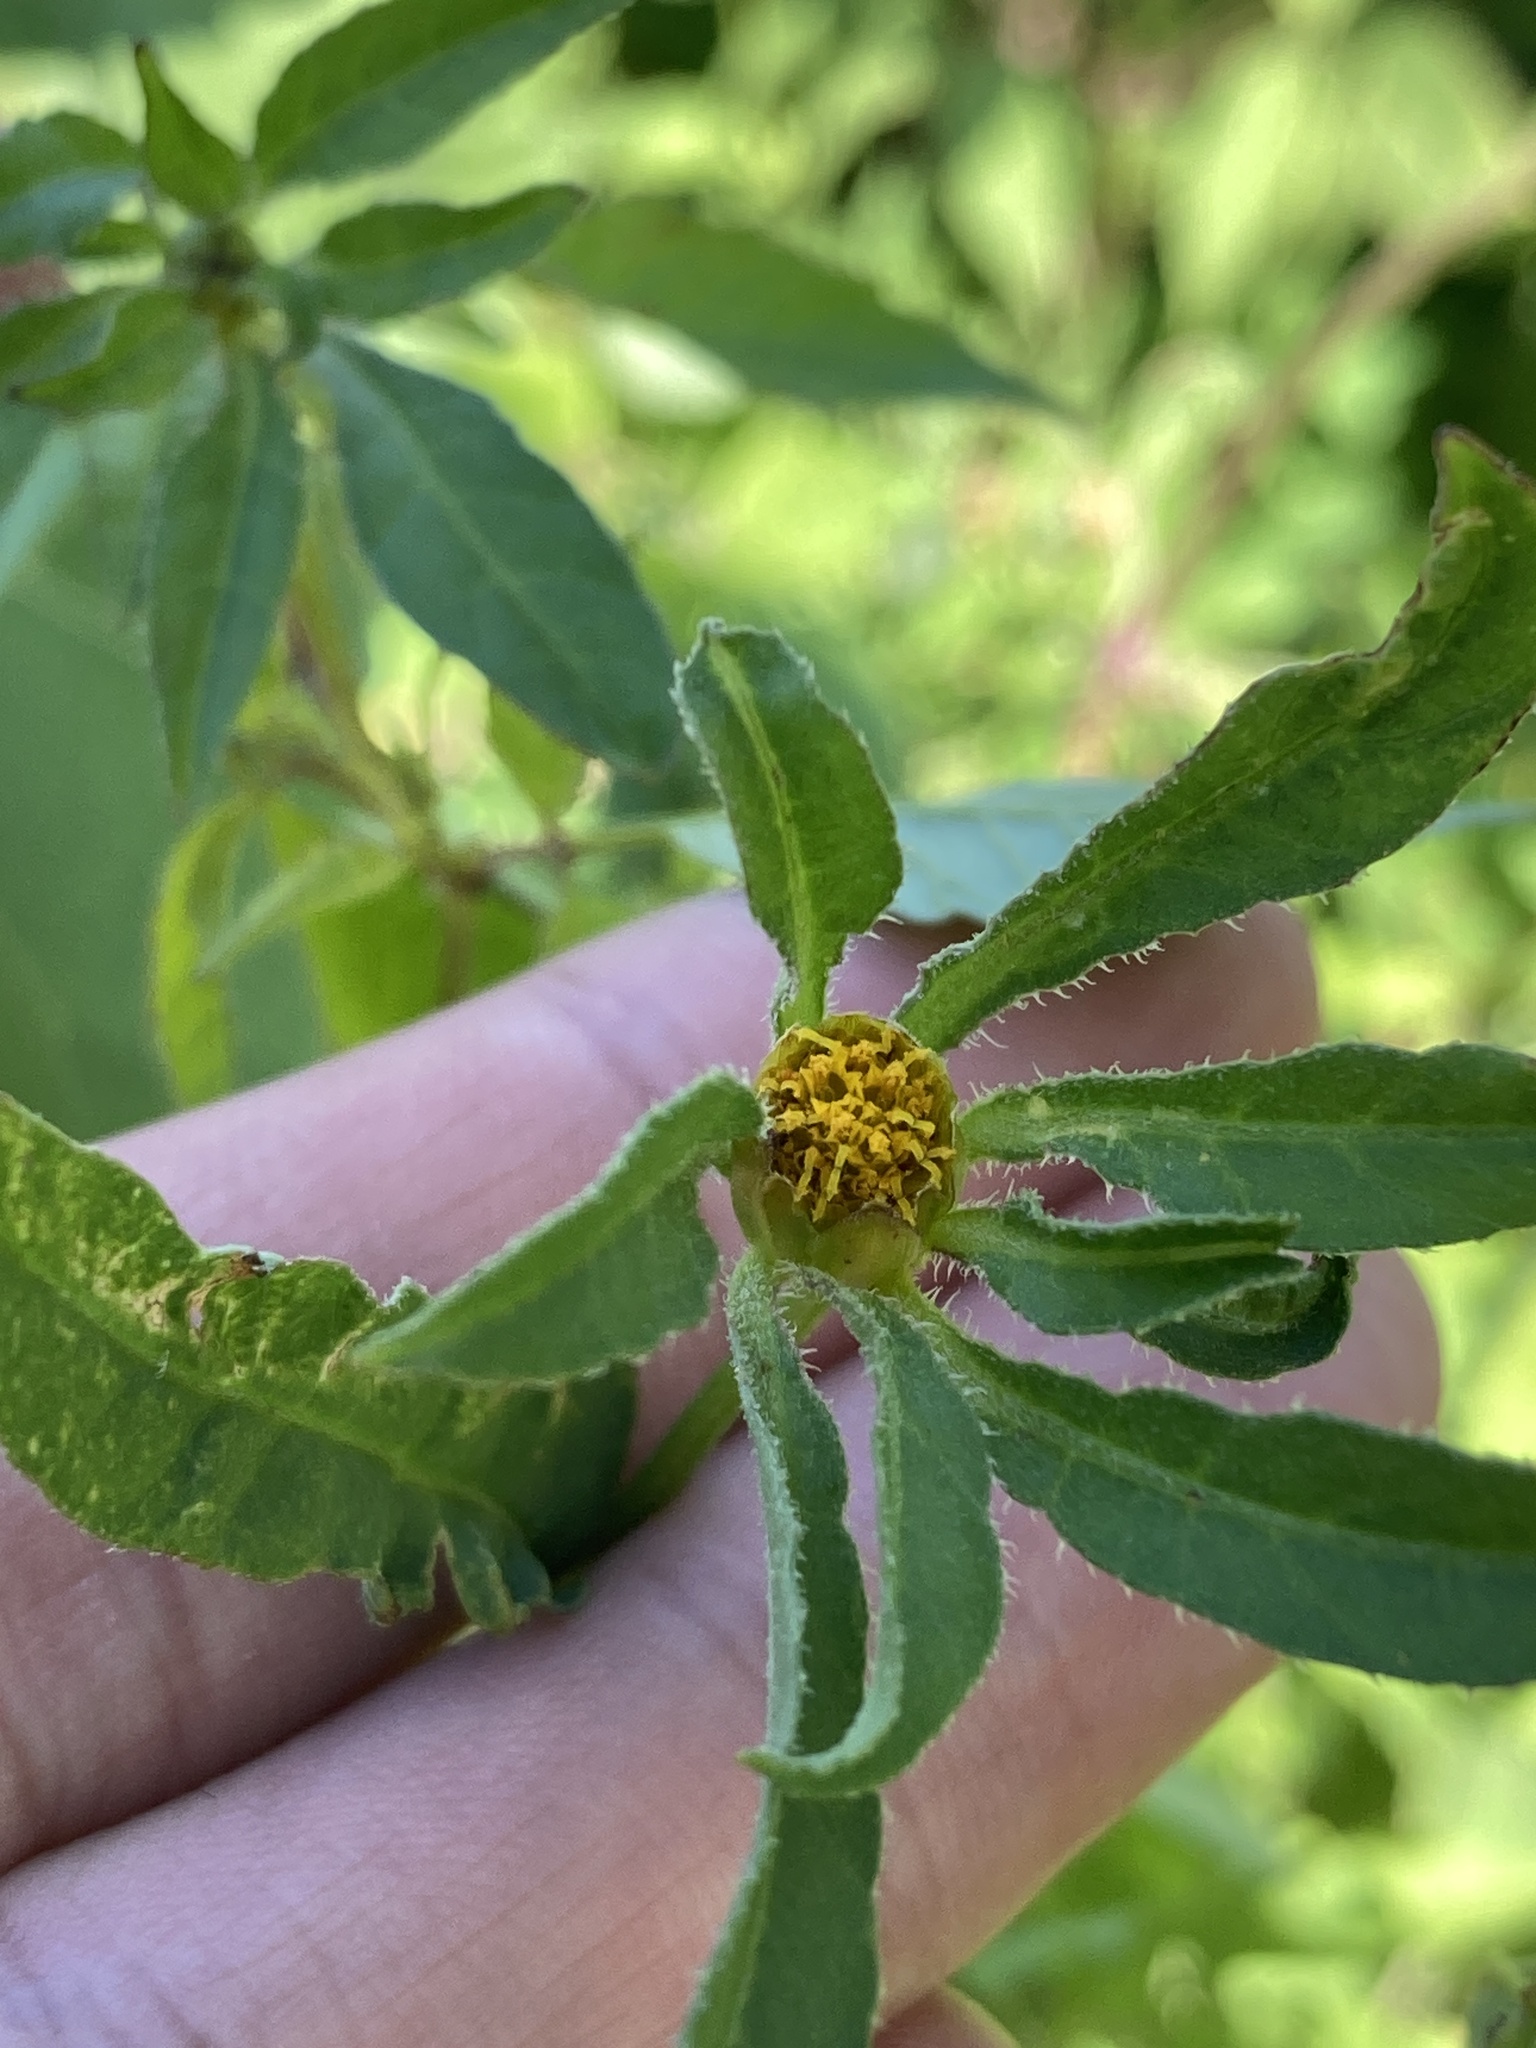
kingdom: Plantae
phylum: Tracheophyta
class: Magnoliopsida
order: Asterales
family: Asteraceae
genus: Bidens
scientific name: Bidens frondosa
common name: Beggarticks
